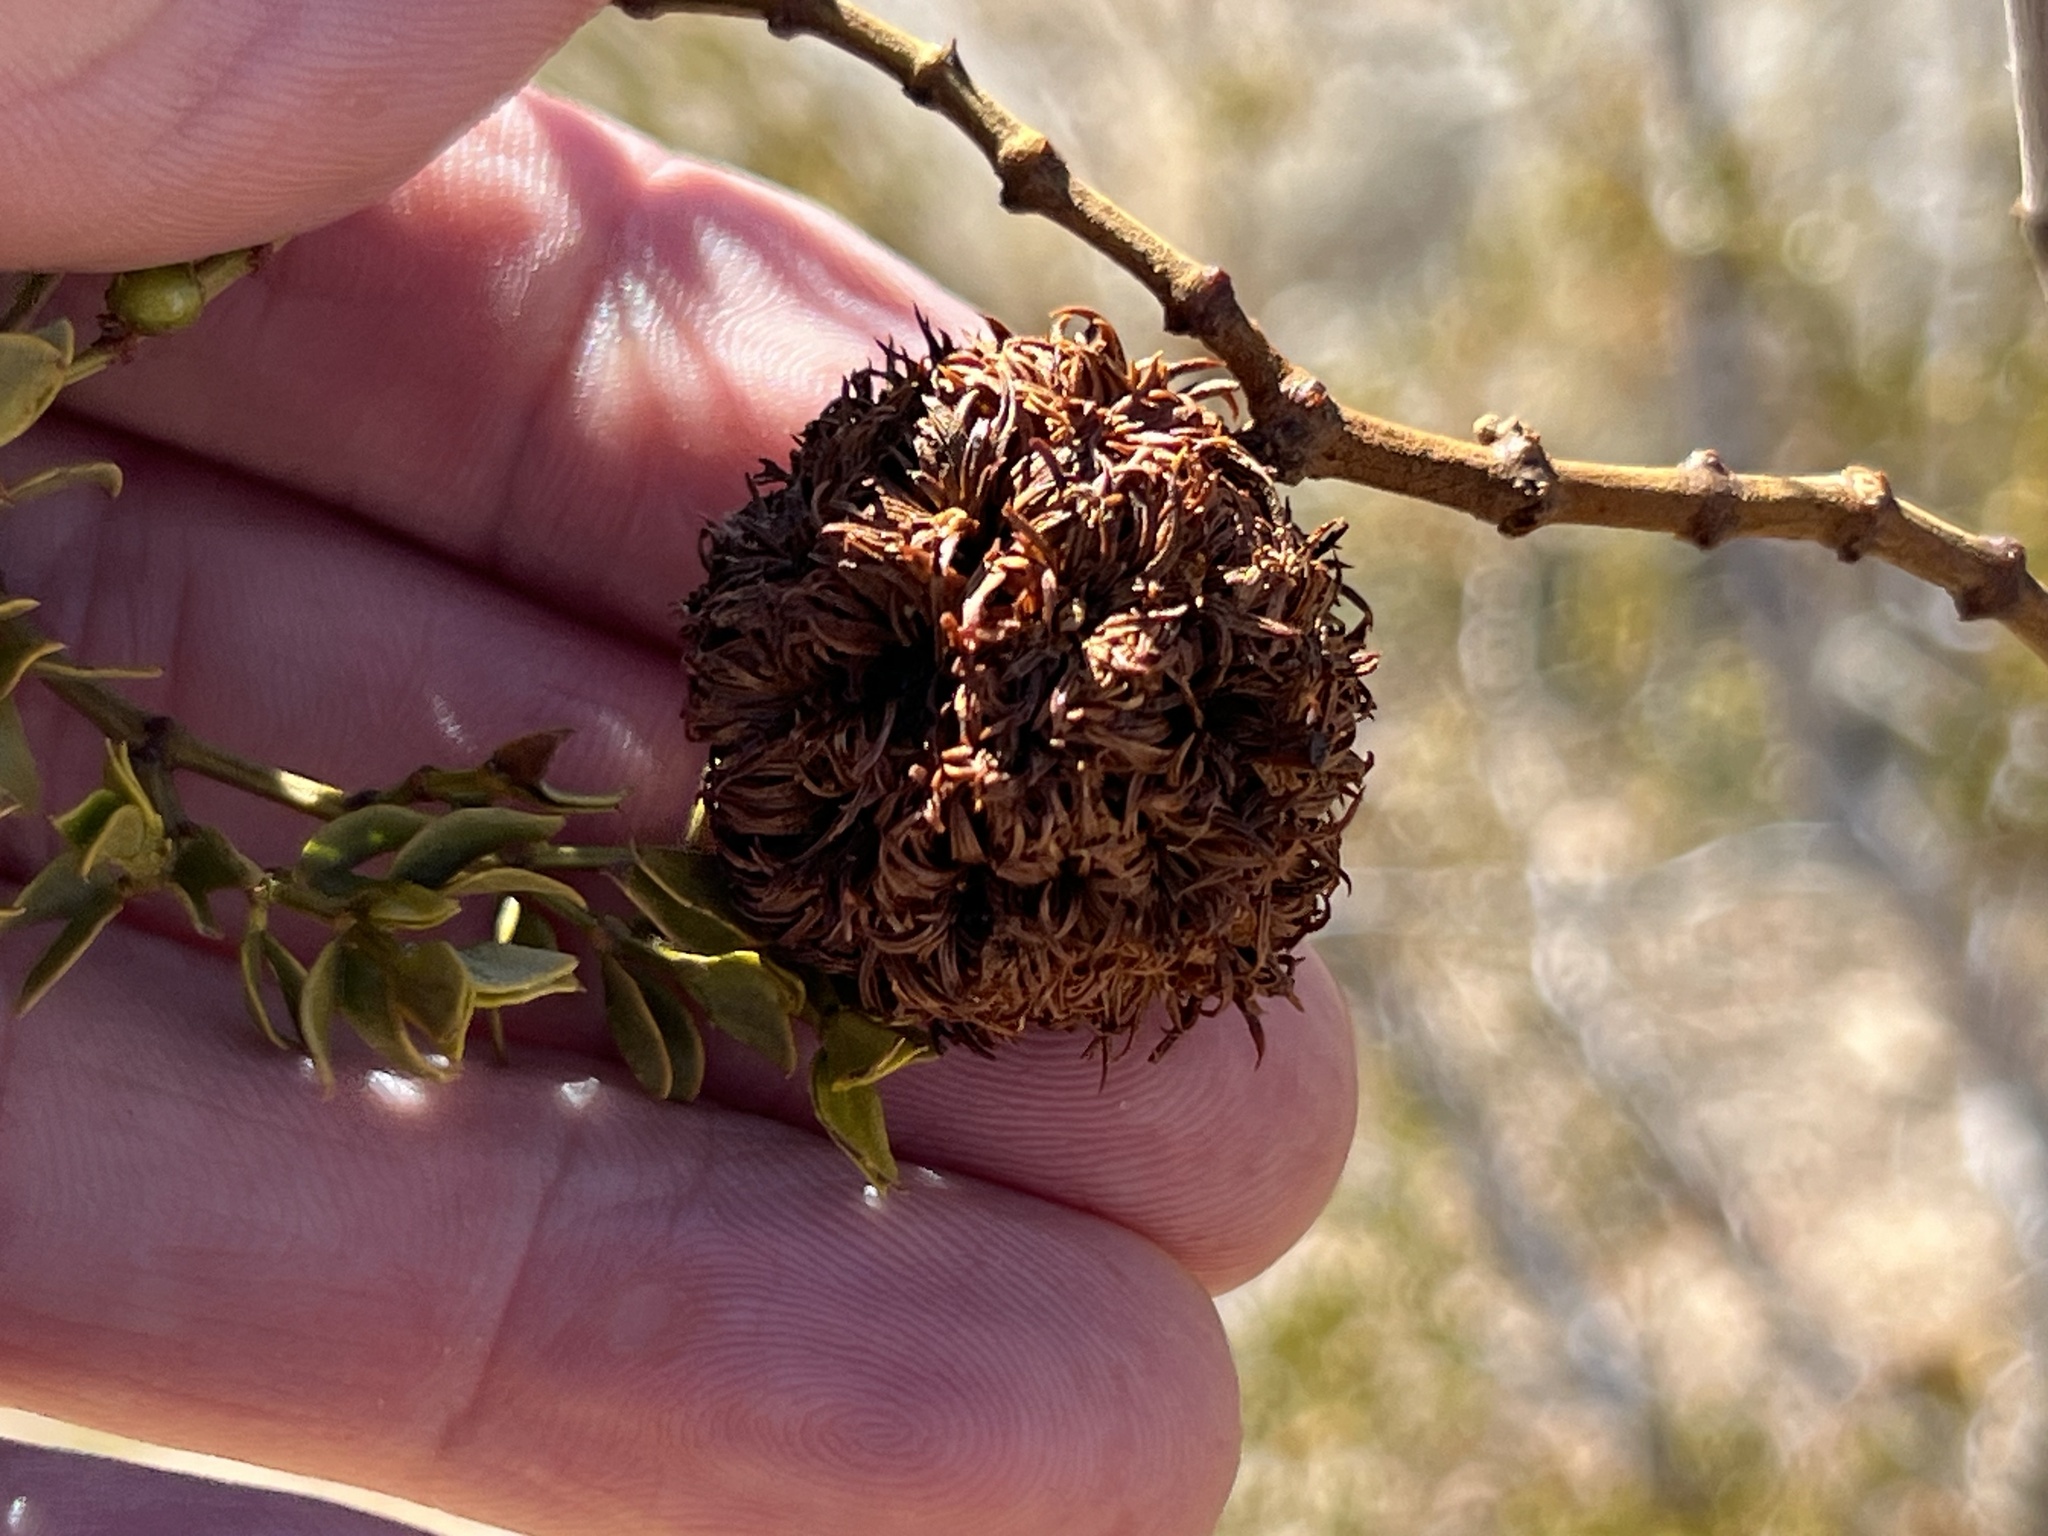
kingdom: Animalia
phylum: Arthropoda
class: Insecta
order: Diptera
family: Cecidomyiidae
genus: Asphondylia
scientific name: Asphondylia auripila
